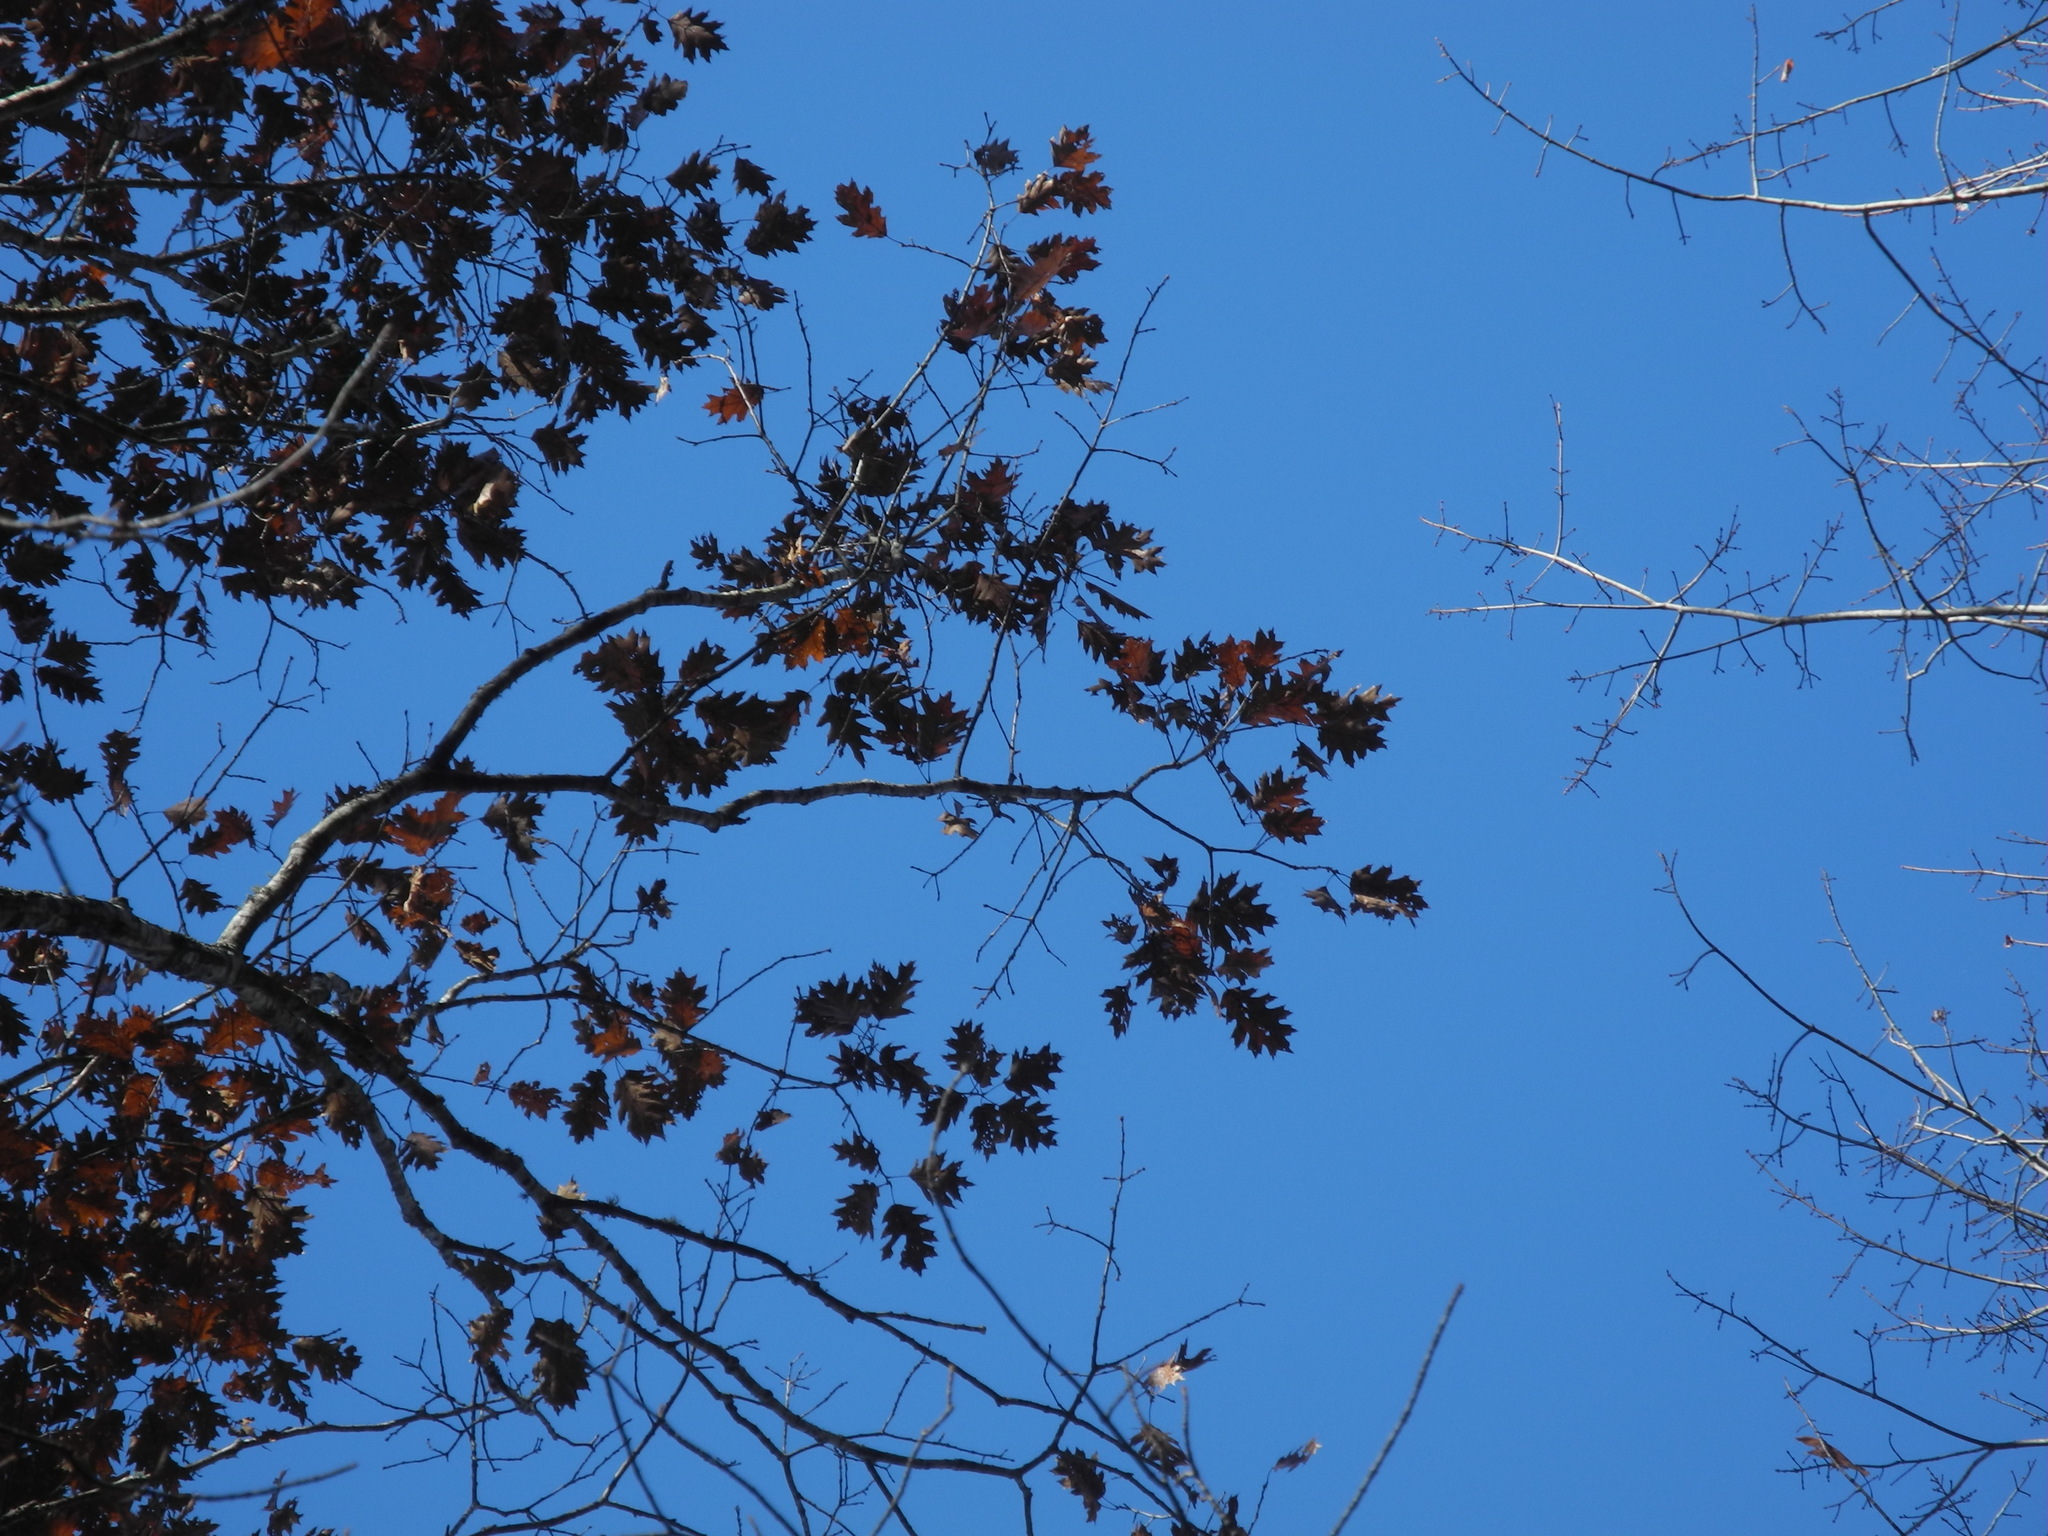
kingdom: Plantae
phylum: Tracheophyta
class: Magnoliopsida
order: Fagales
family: Fagaceae
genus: Quercus
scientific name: Quercus rubra
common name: Red oak
